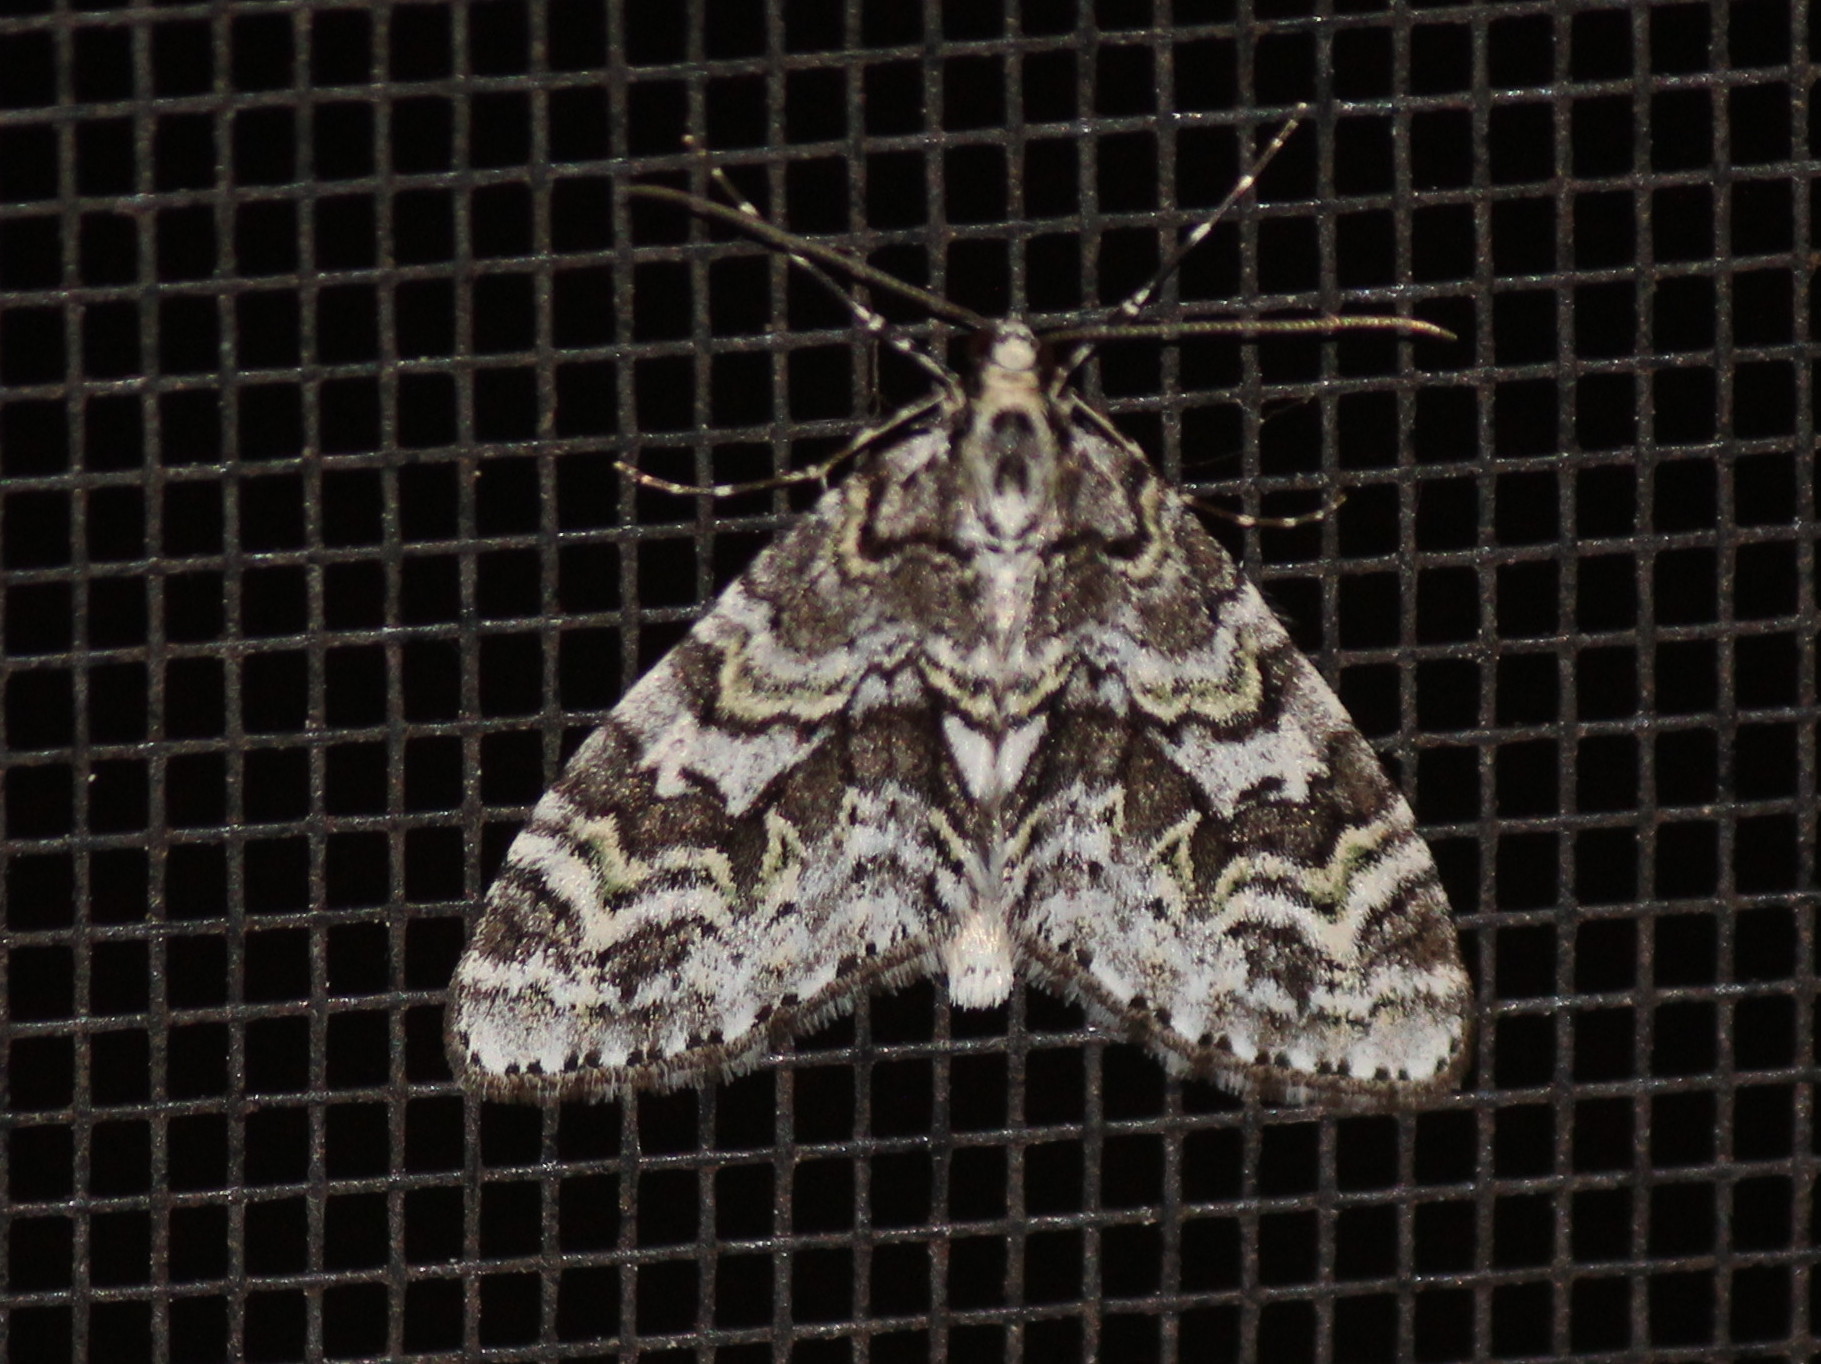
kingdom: Animalia
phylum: Arthropoda
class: Insecta
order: Lepidoptera
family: Geometridae
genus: Cladara
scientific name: Cladara limitaria
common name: Mottled gray carpet
